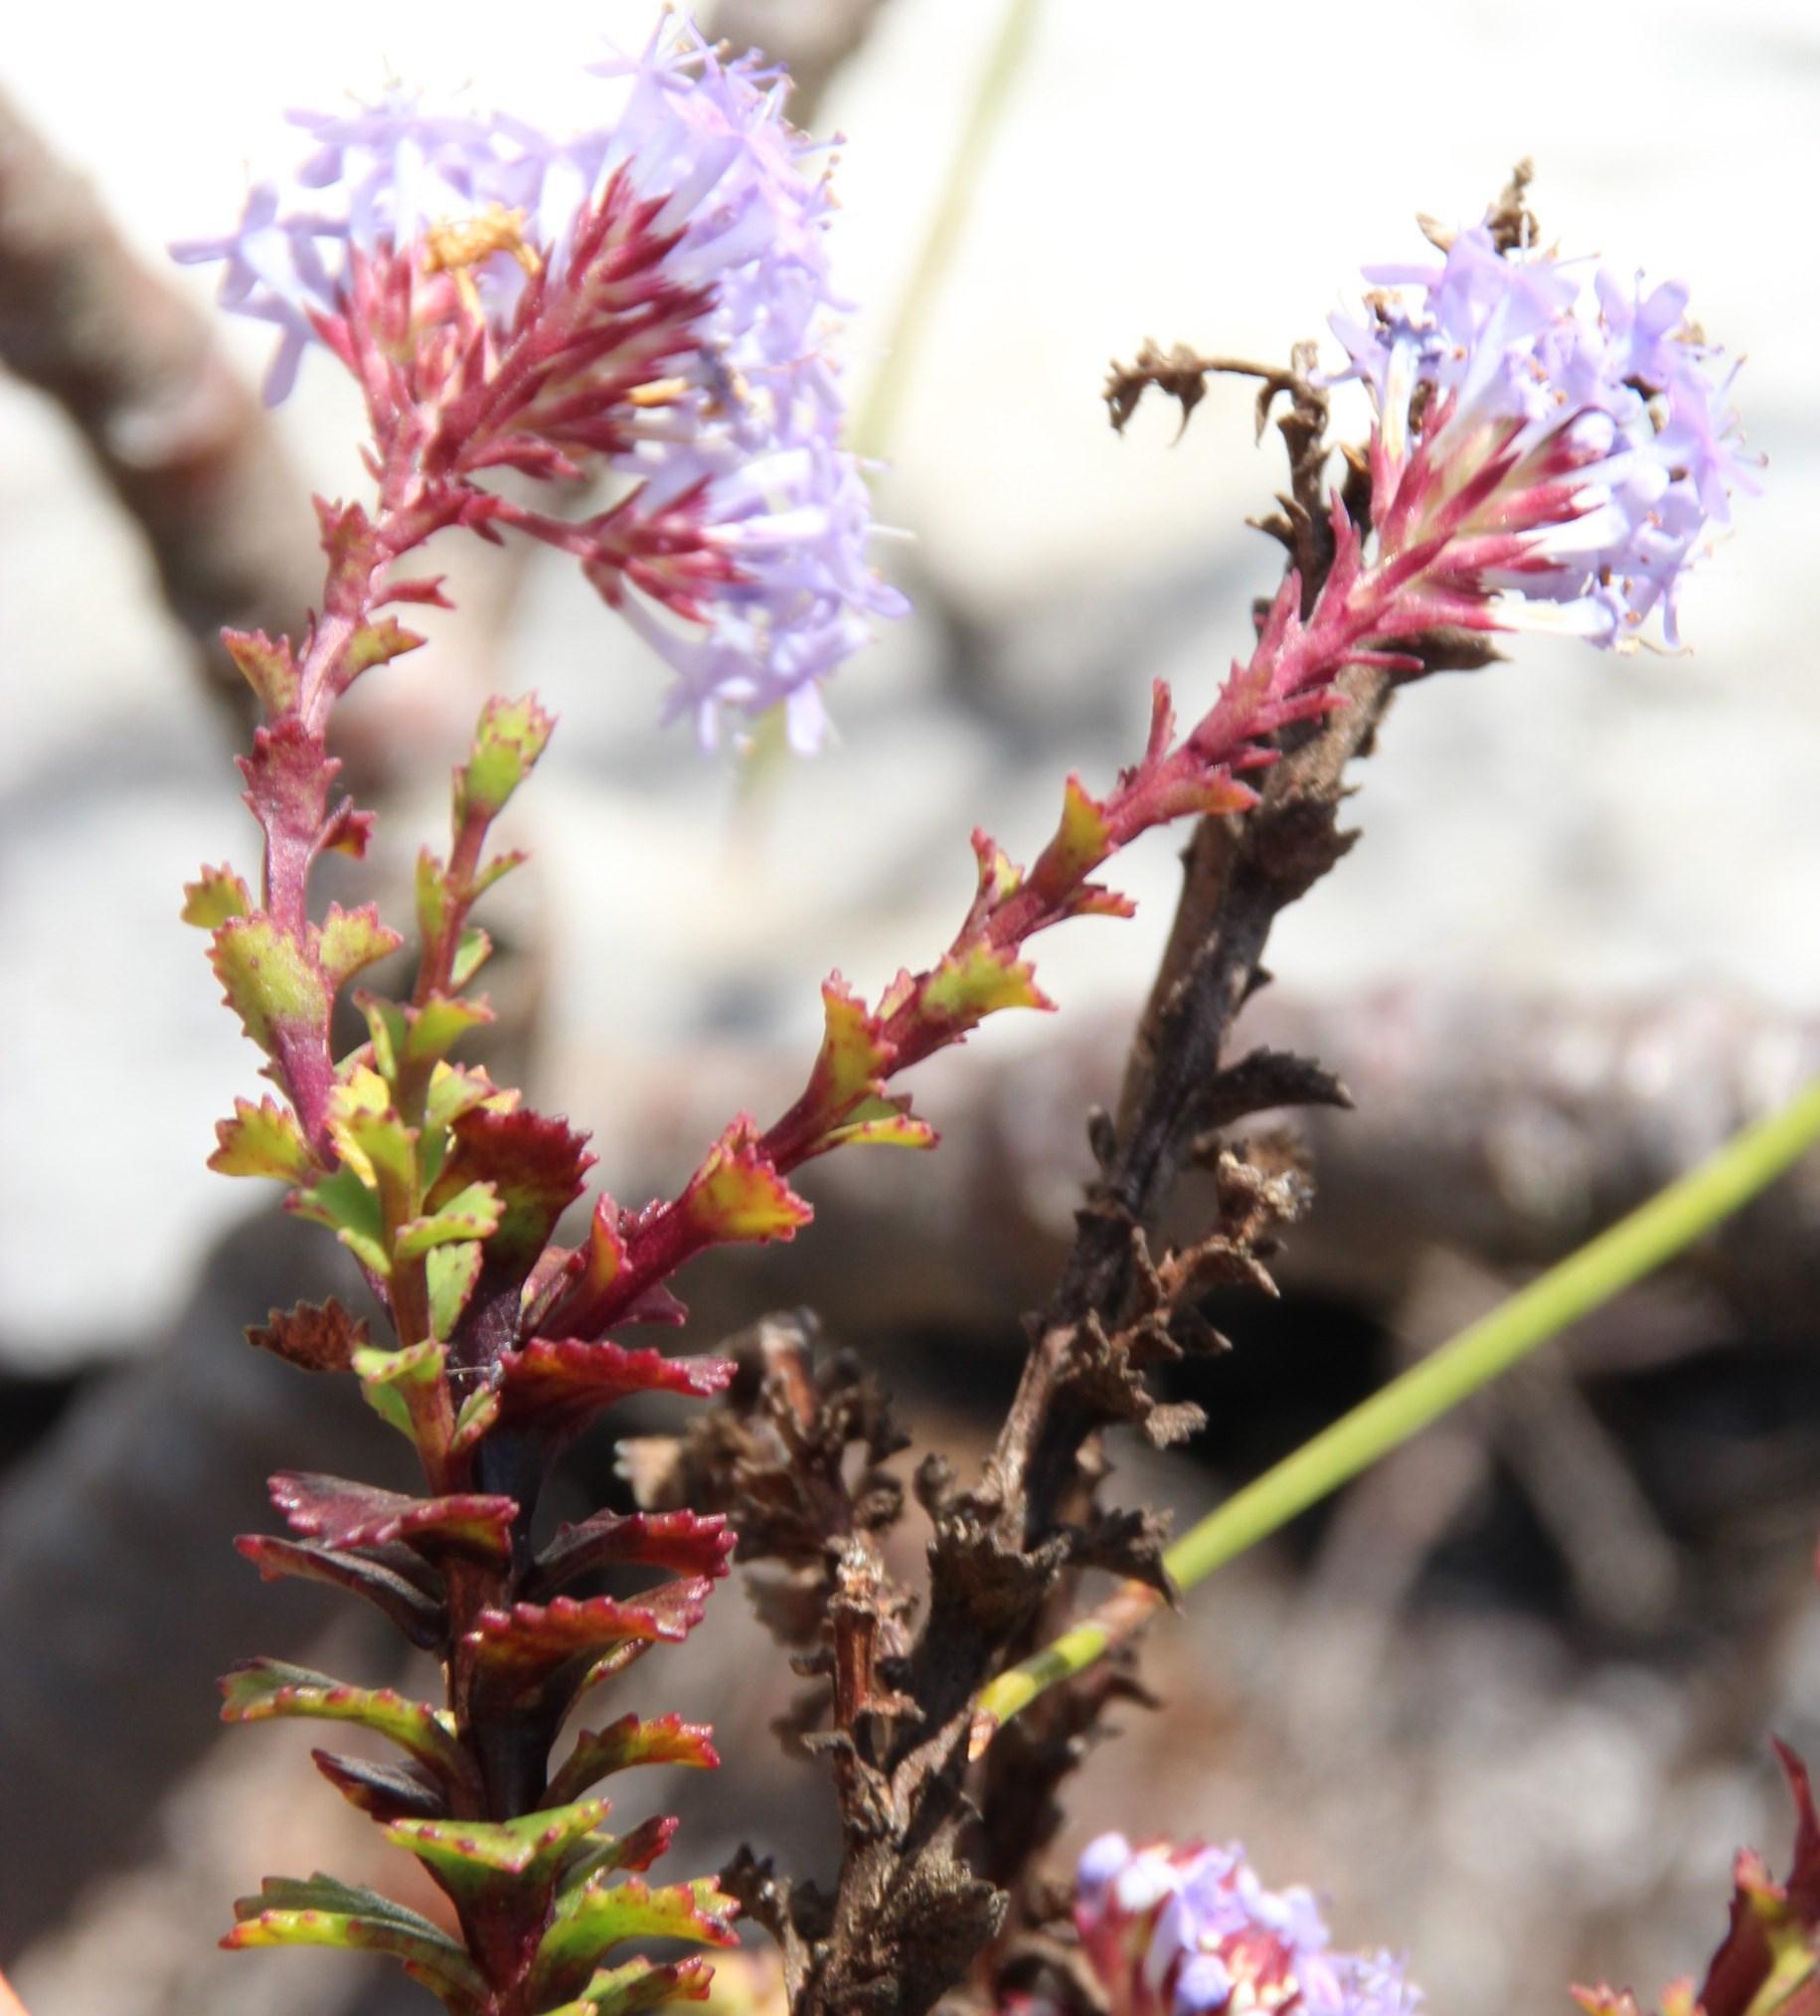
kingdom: Plantae
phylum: Tracheophyta
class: Magnoliopsida
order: Lamiales
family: Scrophulariaceae
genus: Pseudoselago
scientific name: Pseudoselago serrata
